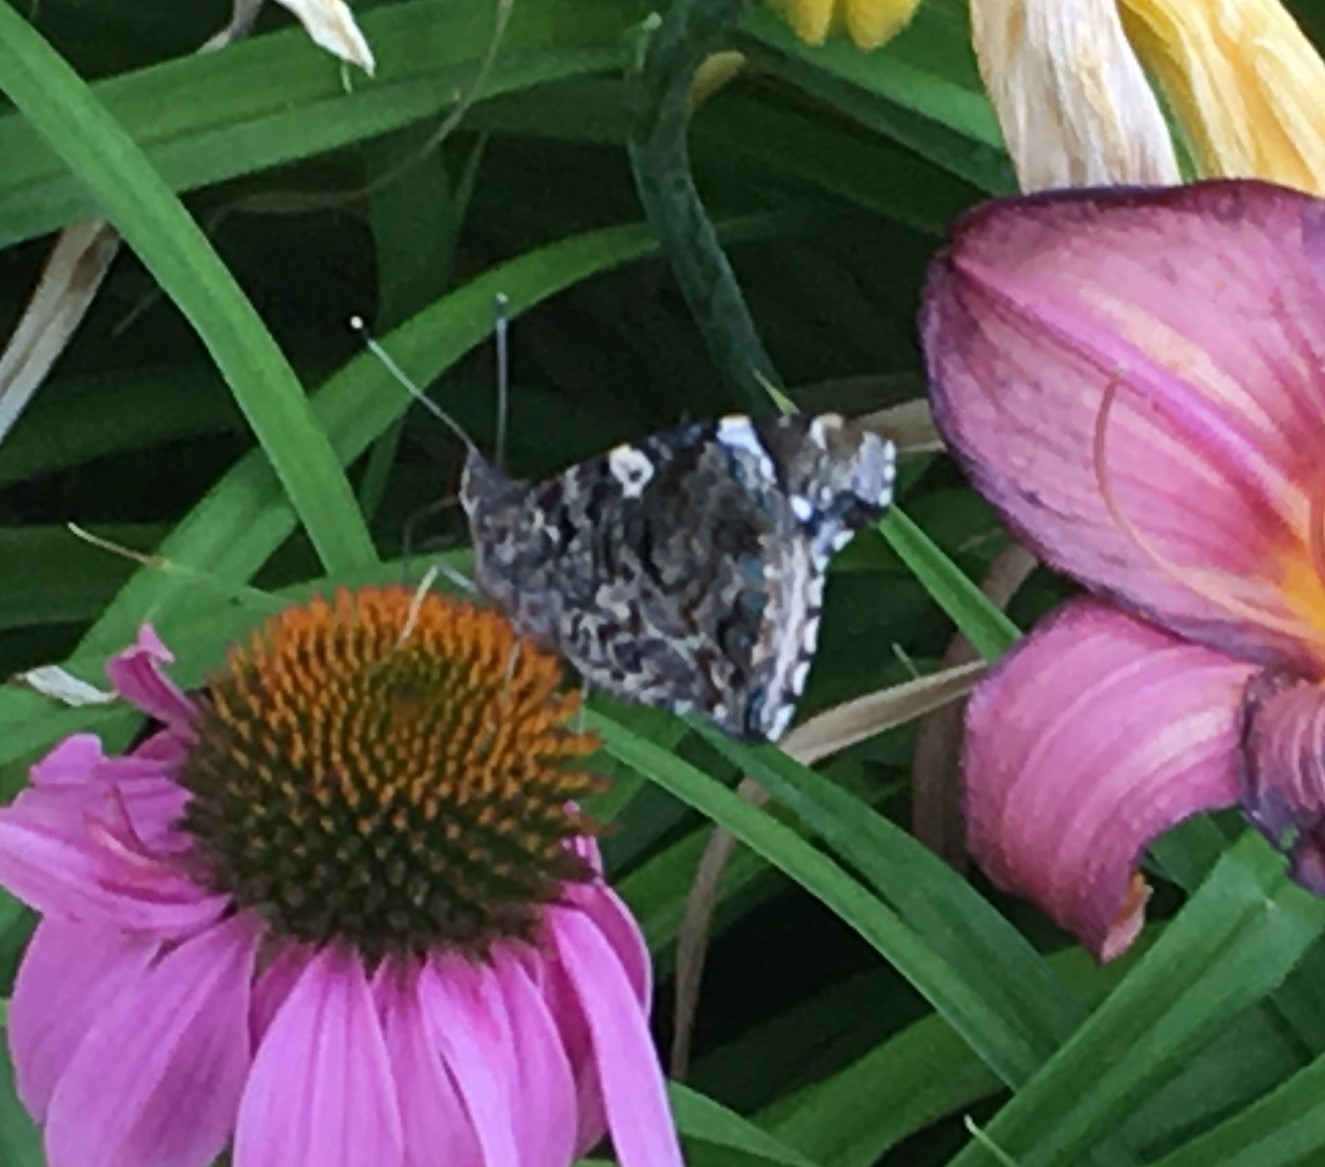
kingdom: Animalia
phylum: Arthropoda
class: Insecta
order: Lepidoptera
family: Nymphalidae
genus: Vanessa
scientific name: Vanessa atalanta
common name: Red admiral
